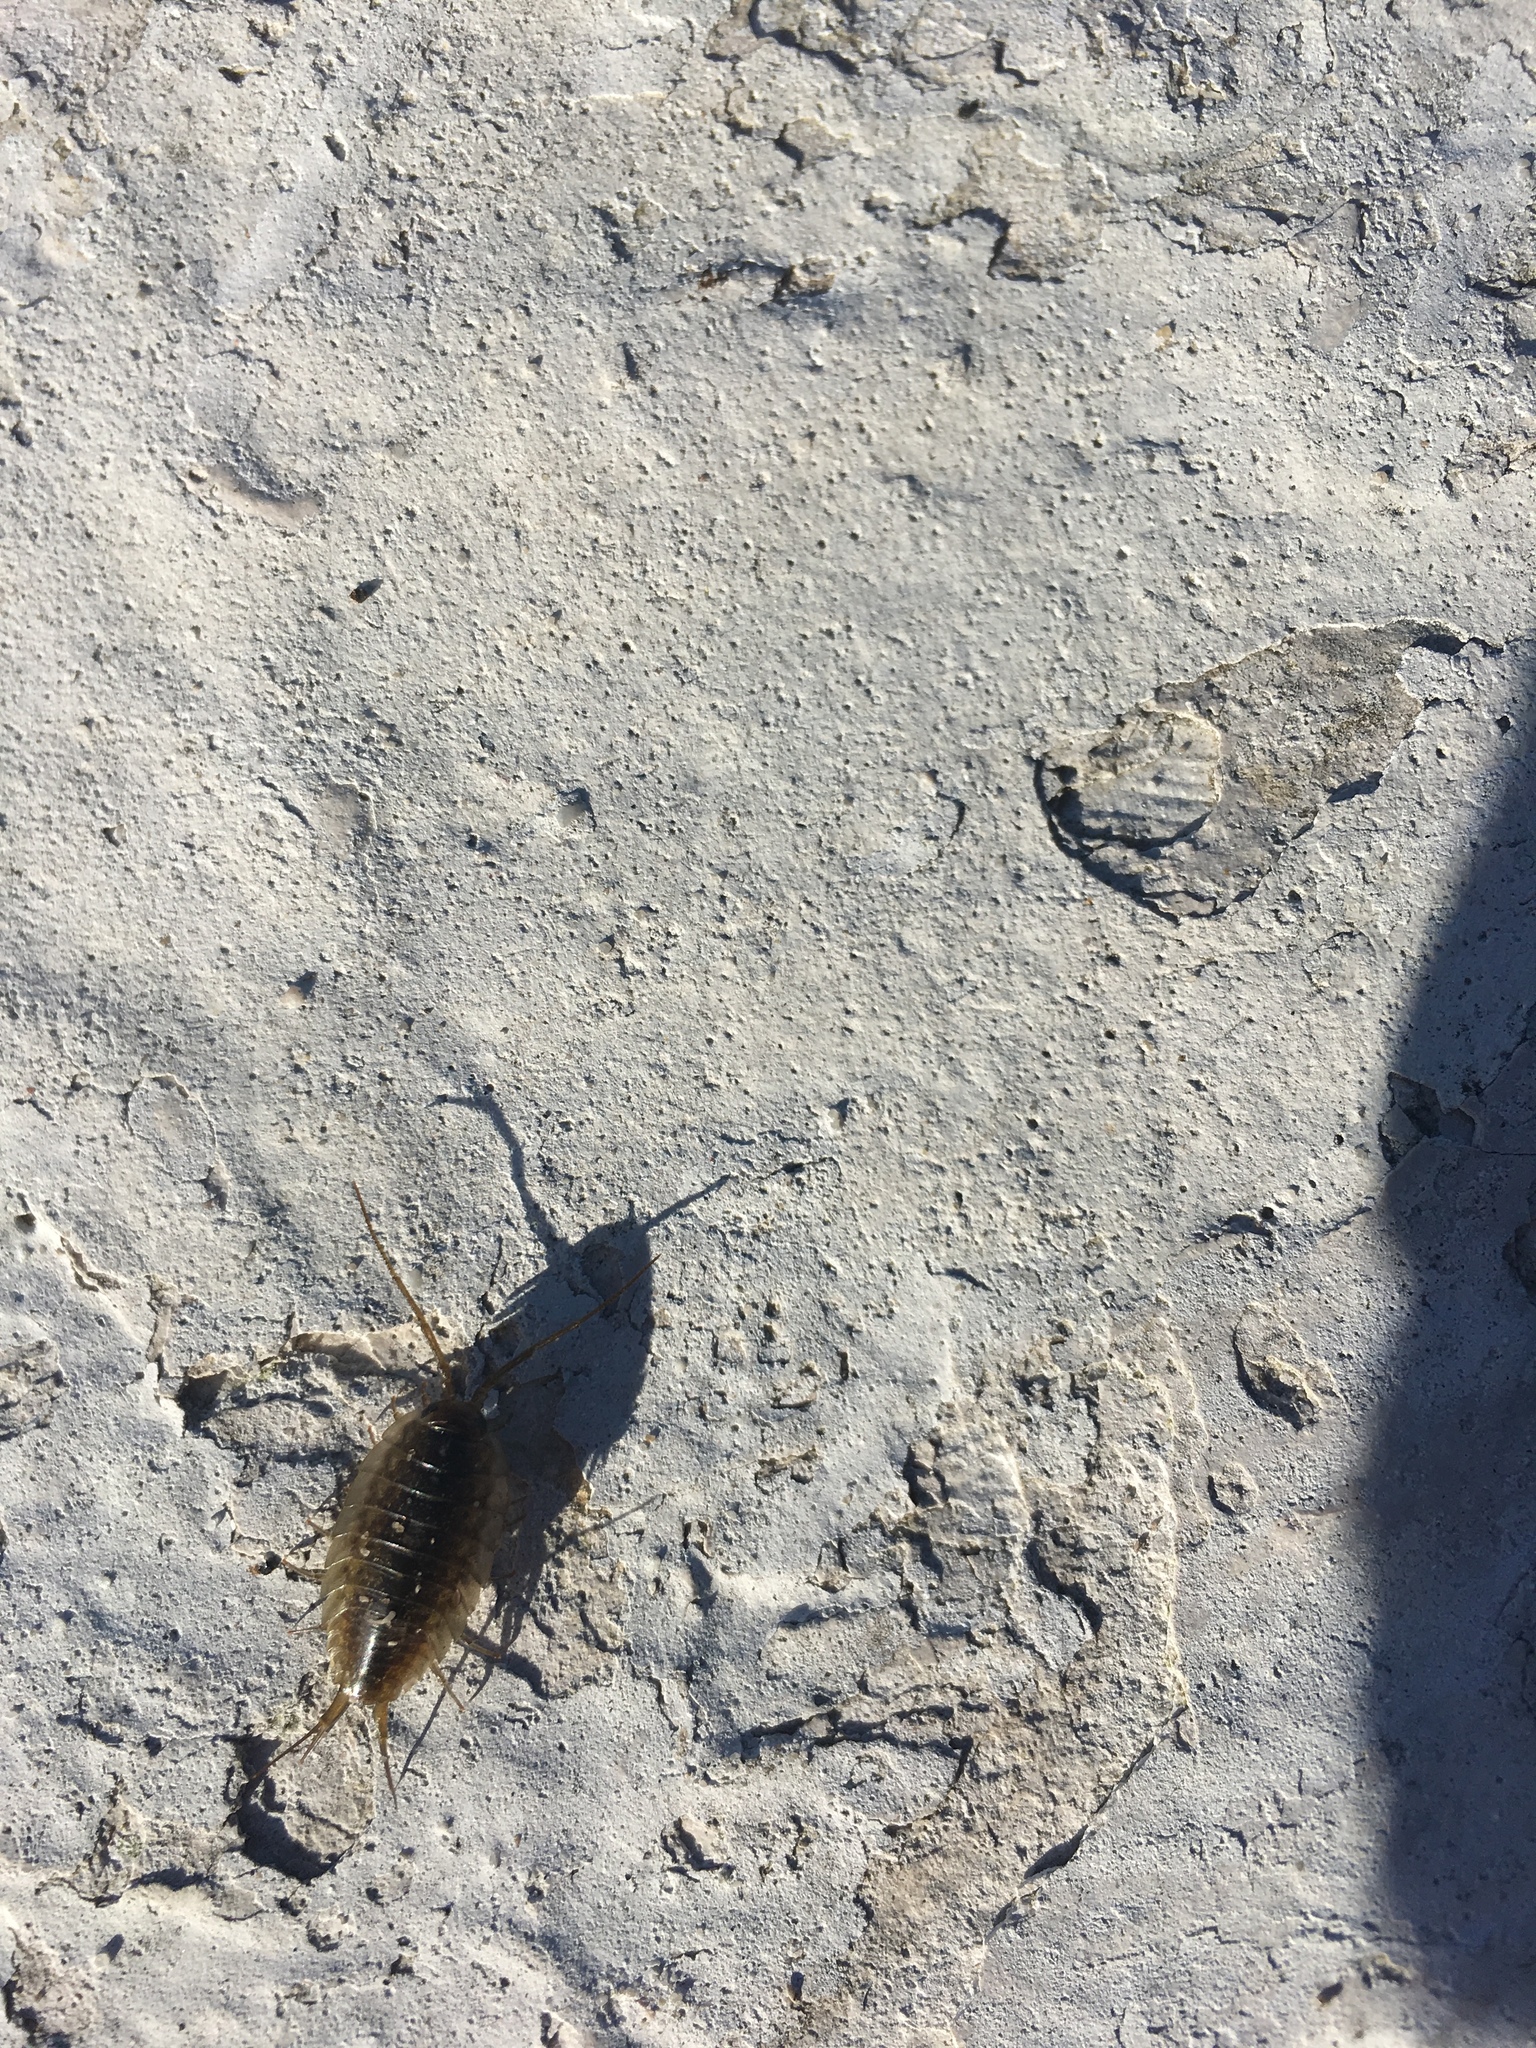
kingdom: Animalia
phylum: Arthropoda
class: Malacostraca
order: Isopoda
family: Ligiidae
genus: Ligia
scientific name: Ligia dilatata
